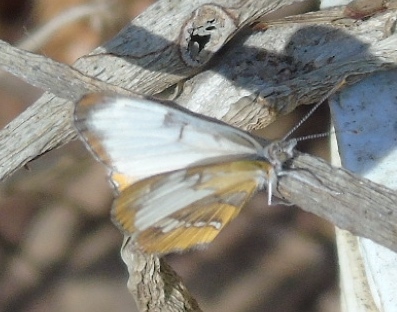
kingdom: Animalia
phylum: Arthropoda
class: Insecta
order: Lepidoptera
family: Nymphalidae
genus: Mestra
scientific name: Mestra amymone
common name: Common mestra
